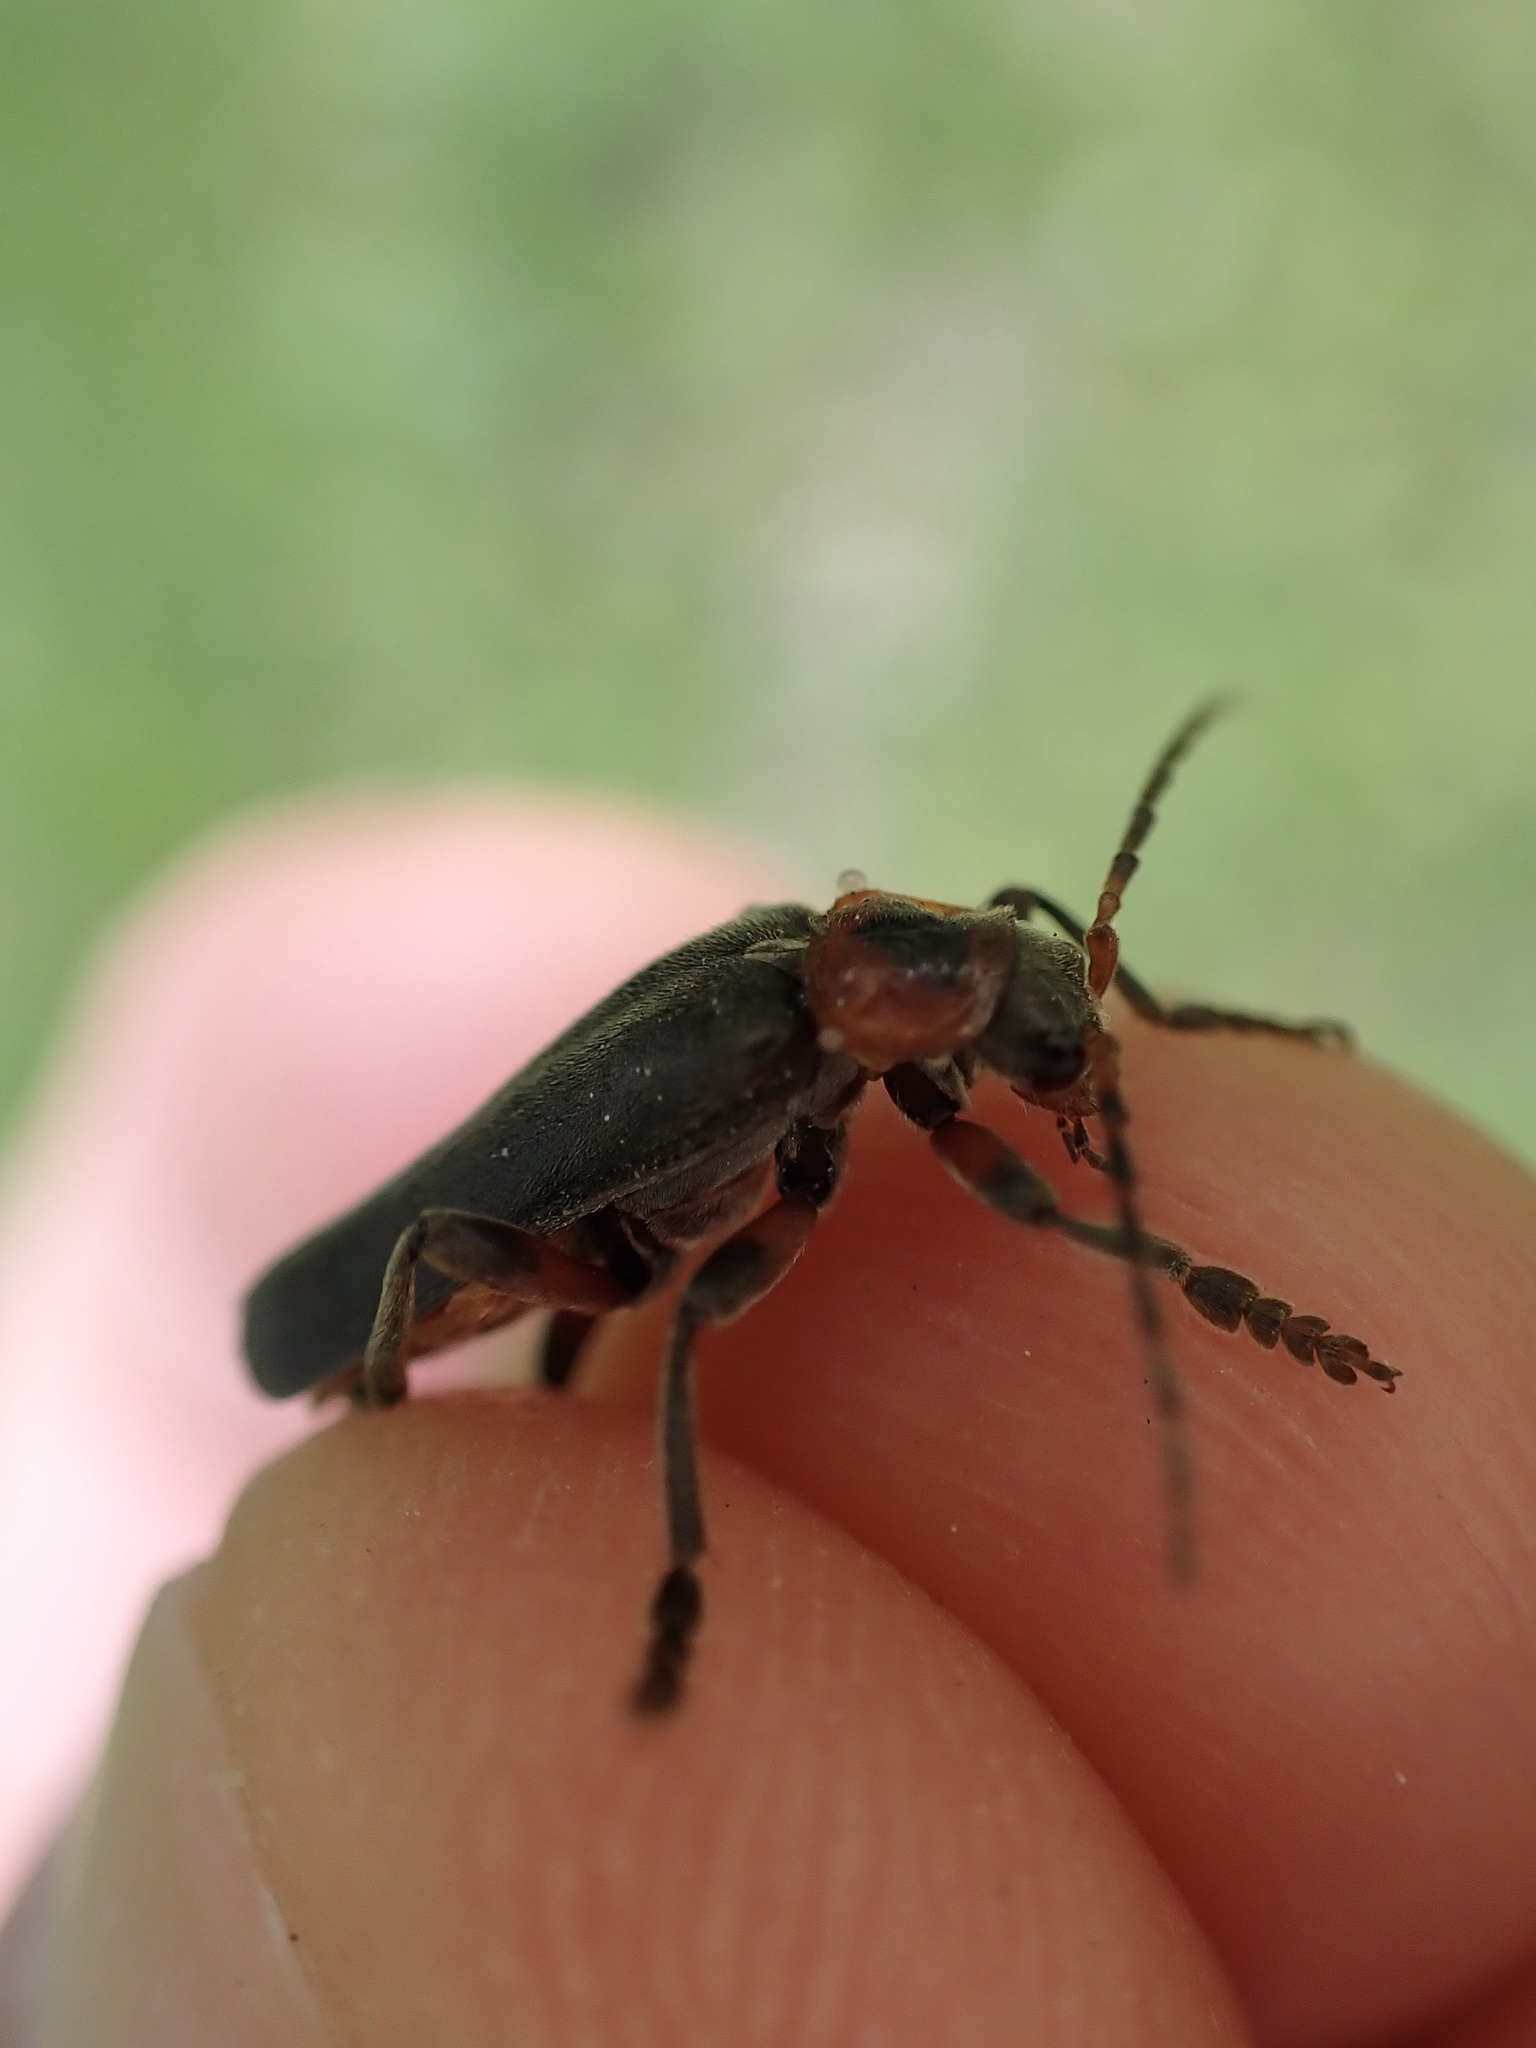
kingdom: Animalia
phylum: Arthropoda
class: Insecta
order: Coleoptera
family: Cantharidae
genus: Cantharis
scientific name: Cantharis rustica
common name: Soldier beetle
